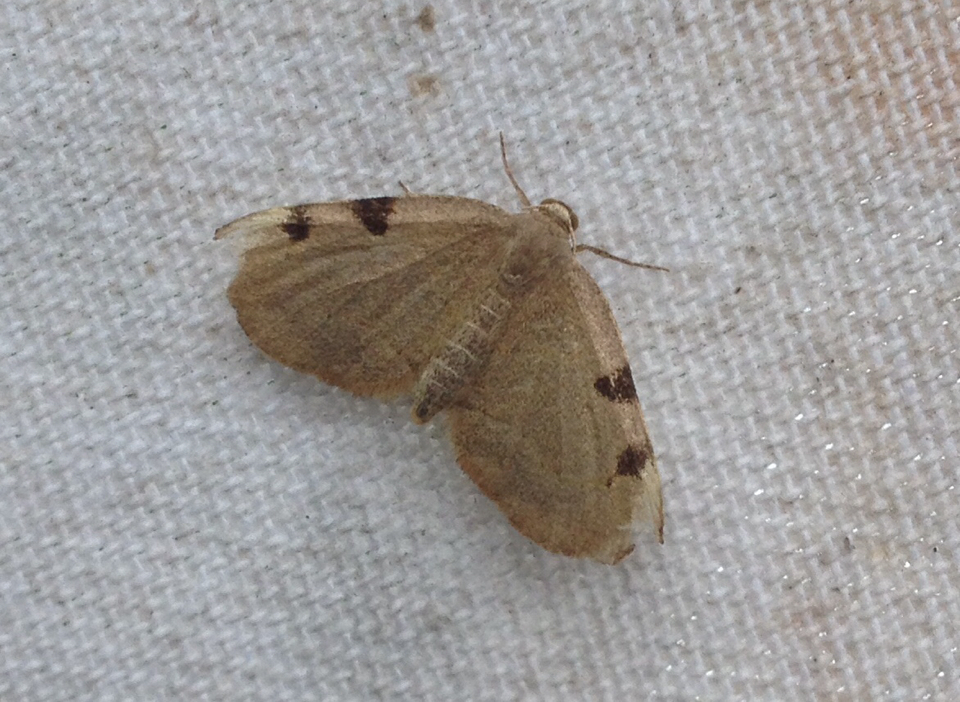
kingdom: Animalia
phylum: Arthropoda
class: Insecta
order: Lepidoptera
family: Geometridae
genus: Heterophleps
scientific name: Heterophleps triguttaria
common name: Three-spotted fillip
